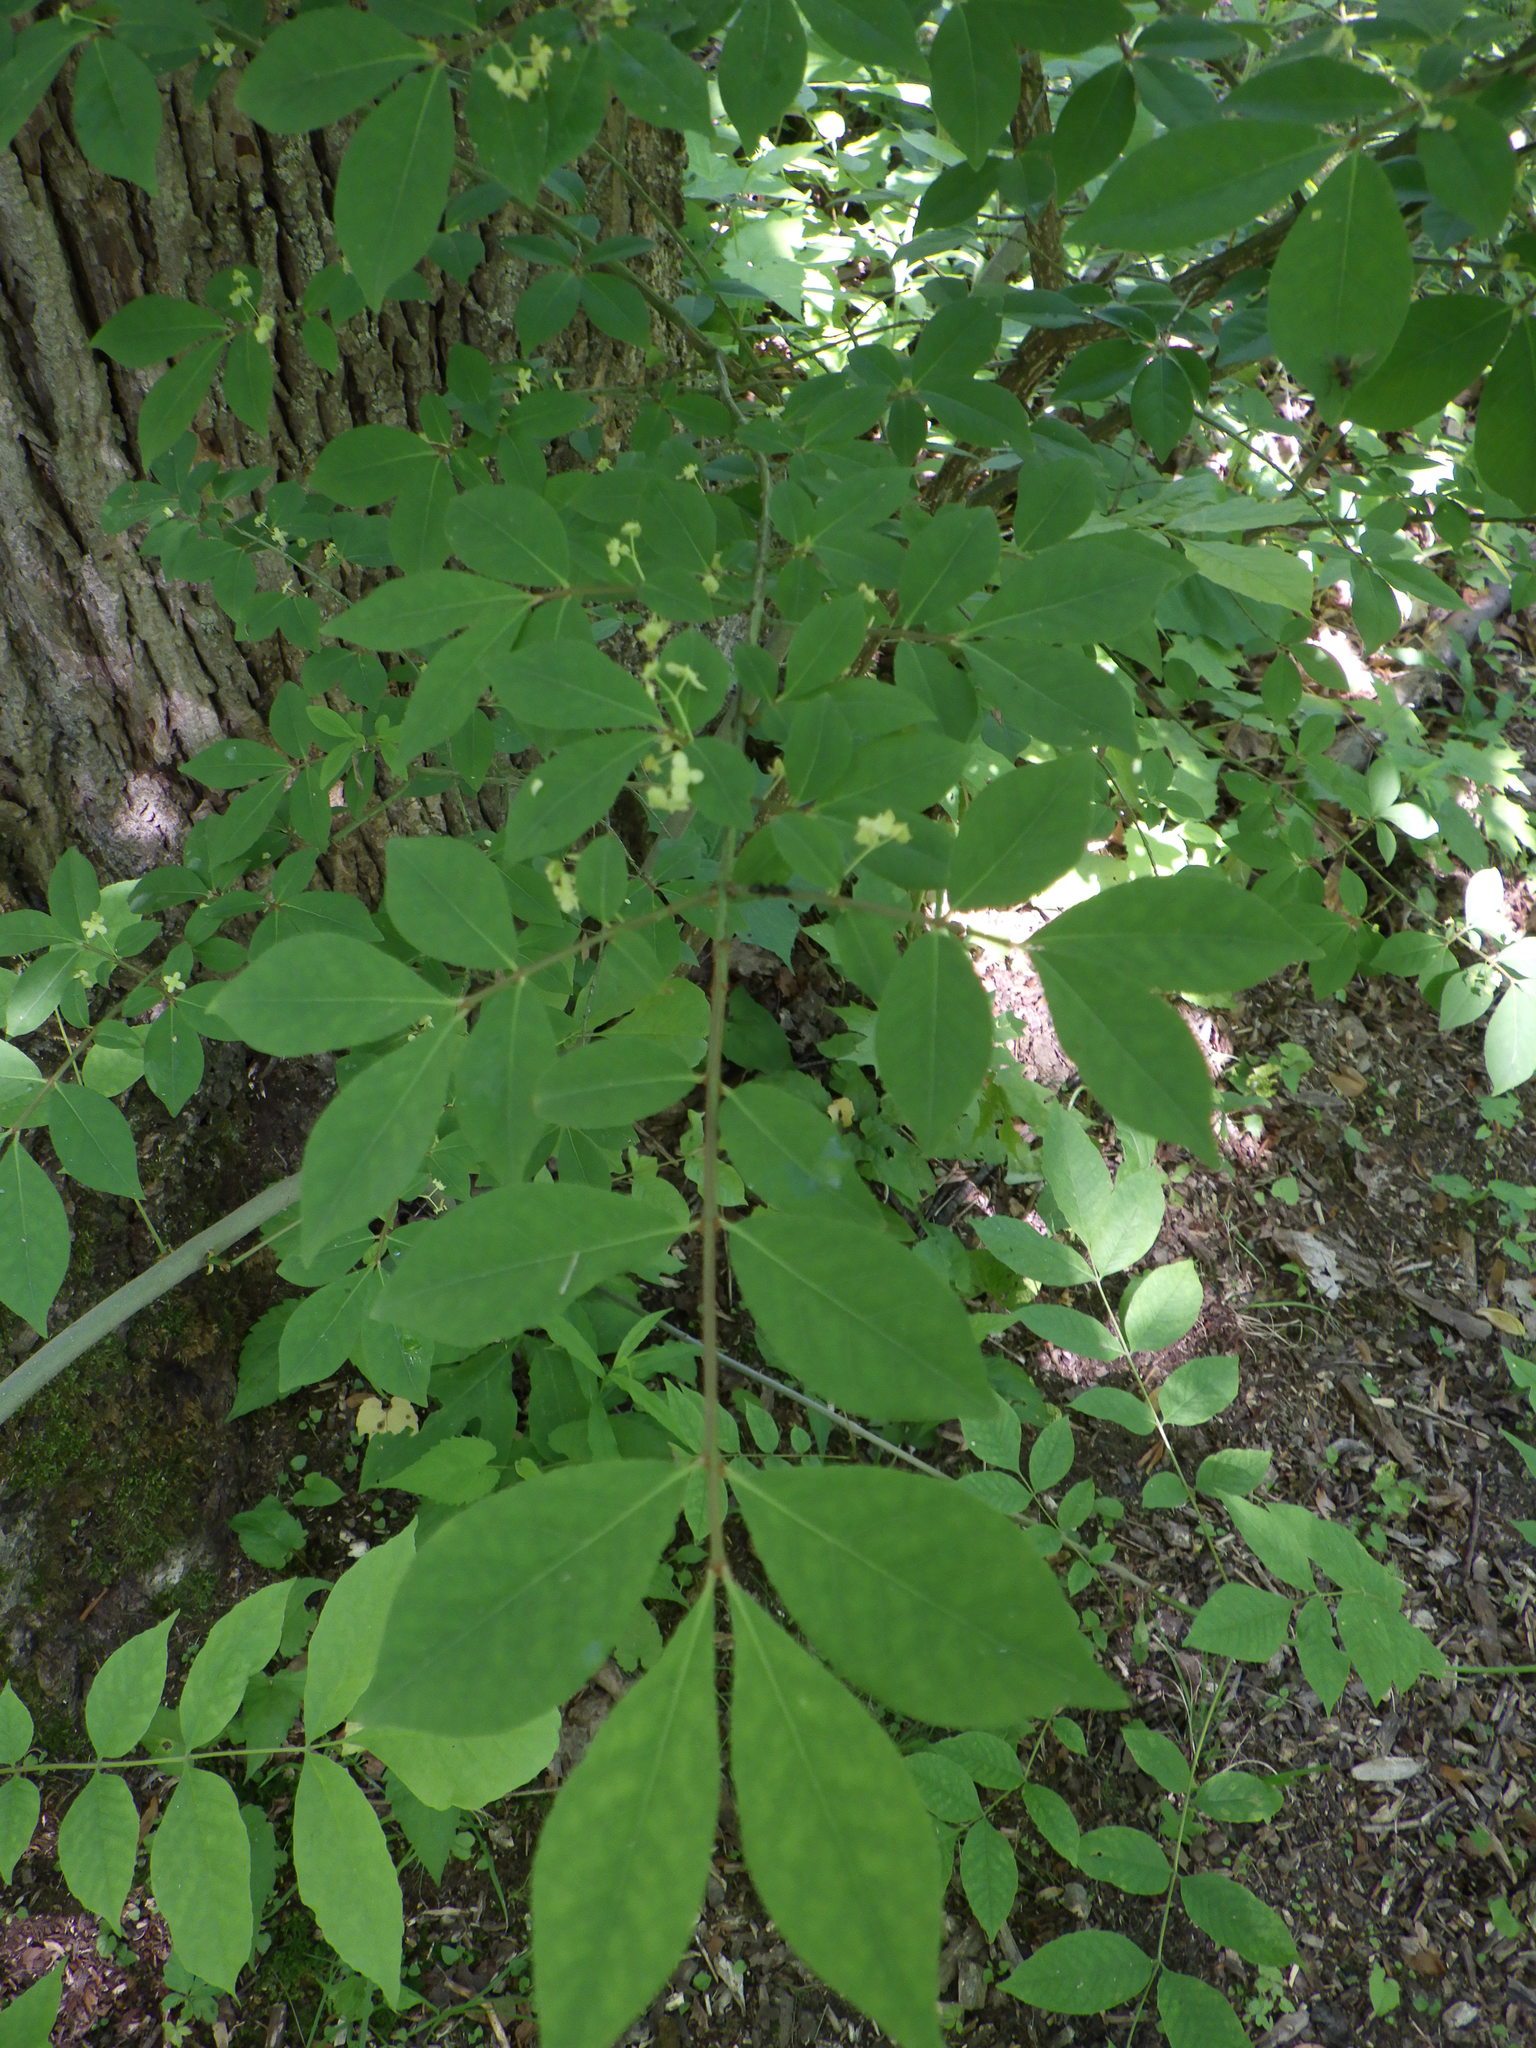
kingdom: Plantae
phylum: Tracheophyta
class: Magnoliopsida
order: Celastrales
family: Celastraceae
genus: Euonymus
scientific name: Euonymus alatus
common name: Winged euonymus
